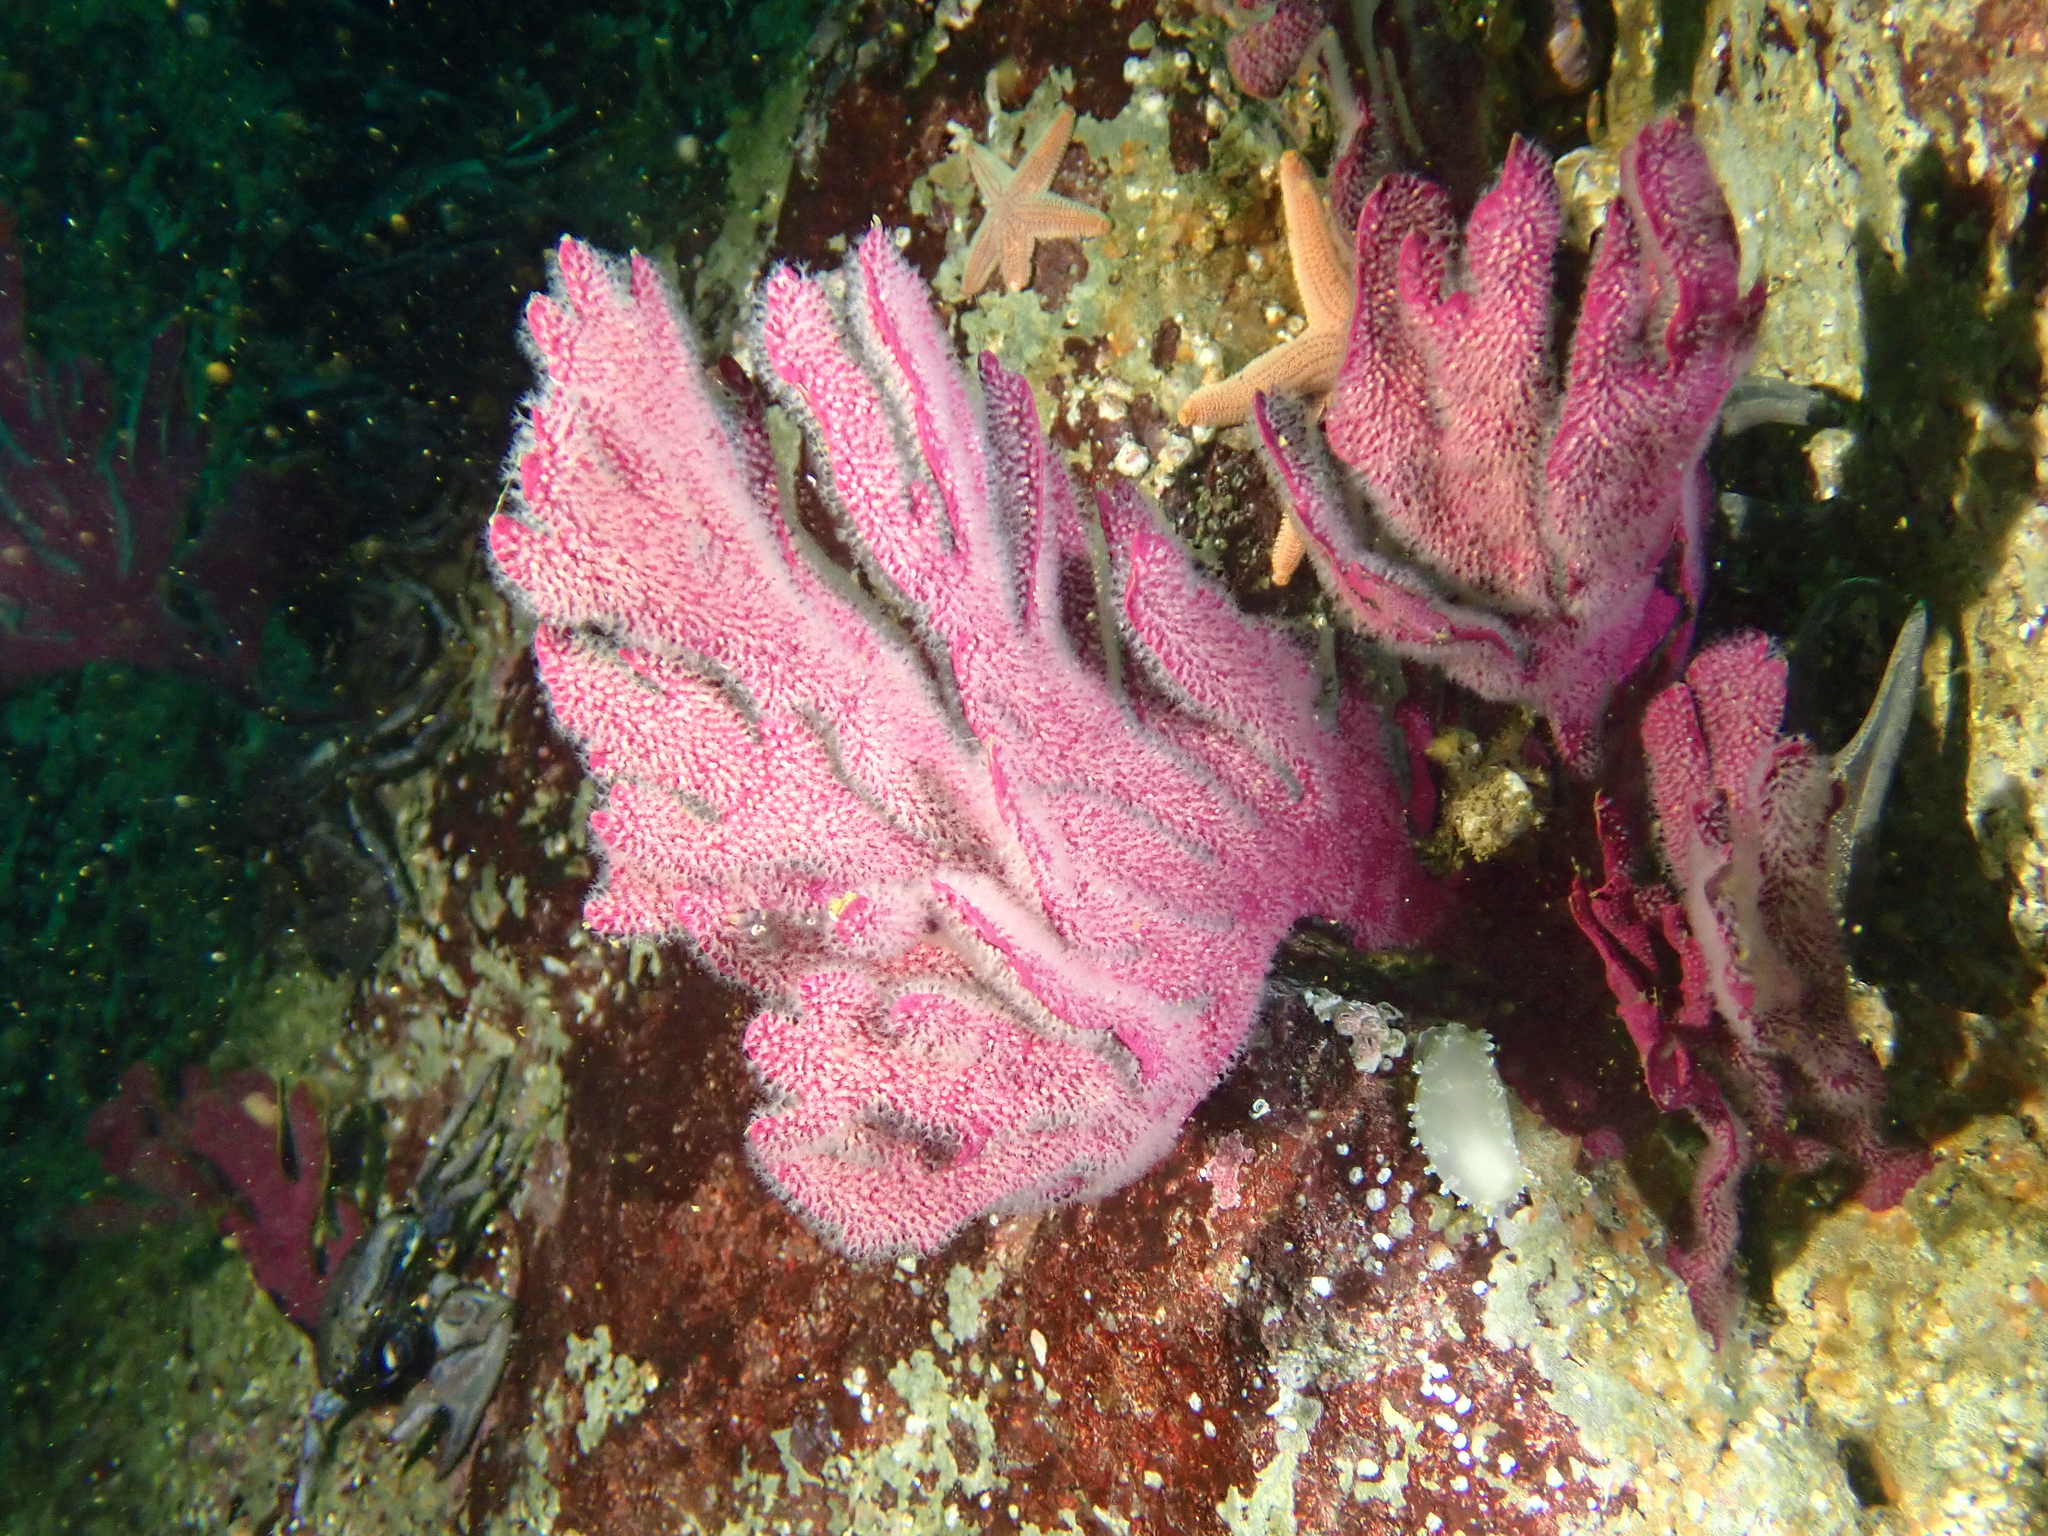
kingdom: Animalia
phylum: Cnidaria
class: Anthozoa
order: Malacalcyonacea
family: Gorgoniidae
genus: Phycogorgia
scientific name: Phycogorgia fucata
